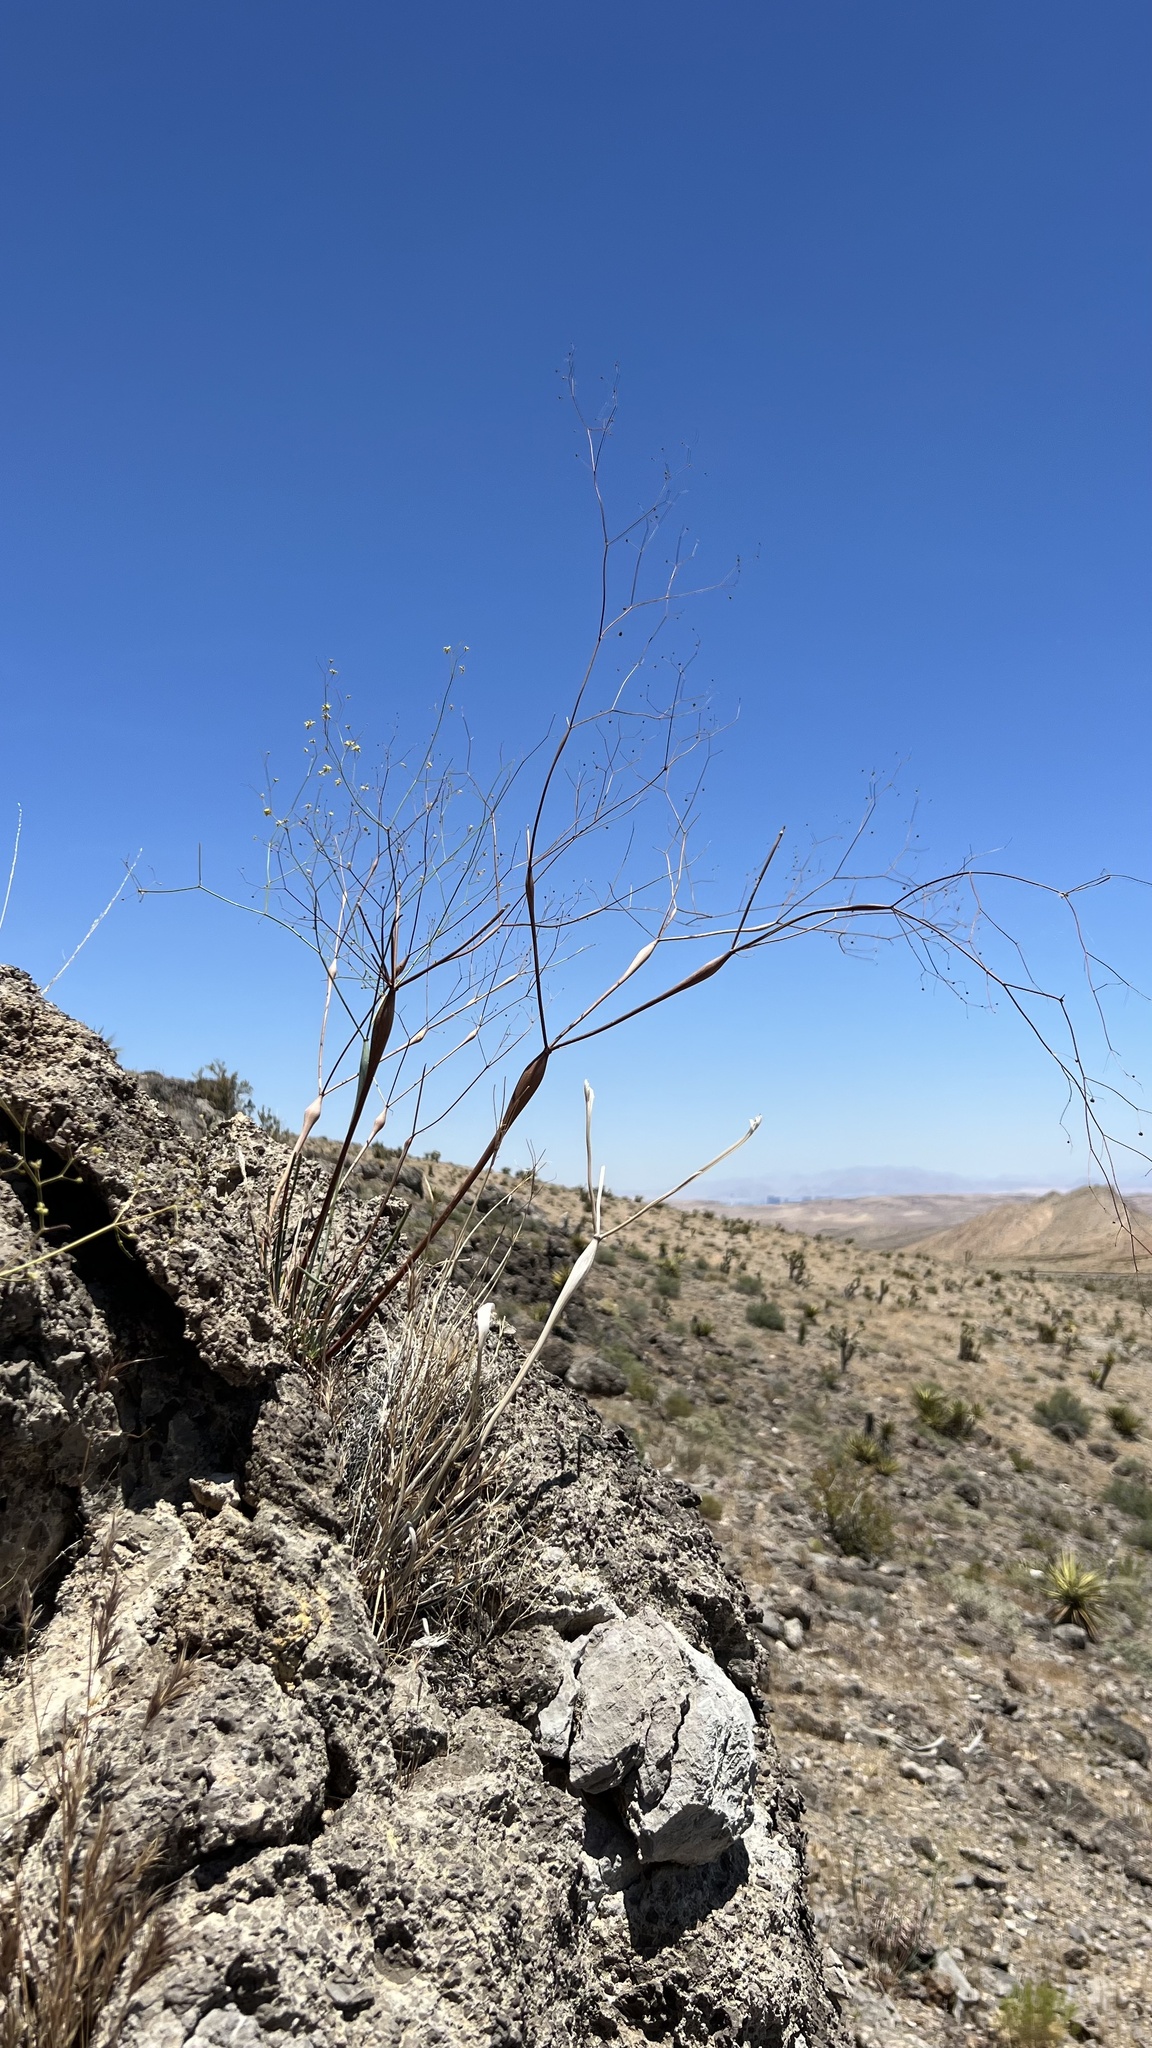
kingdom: Plantae
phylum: Tracheophyta
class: Magnoliopsida
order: Caryophyllales
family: Polygonaceae
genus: Eriogonum
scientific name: Eriogonum inflatum
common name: Desert trumpet
